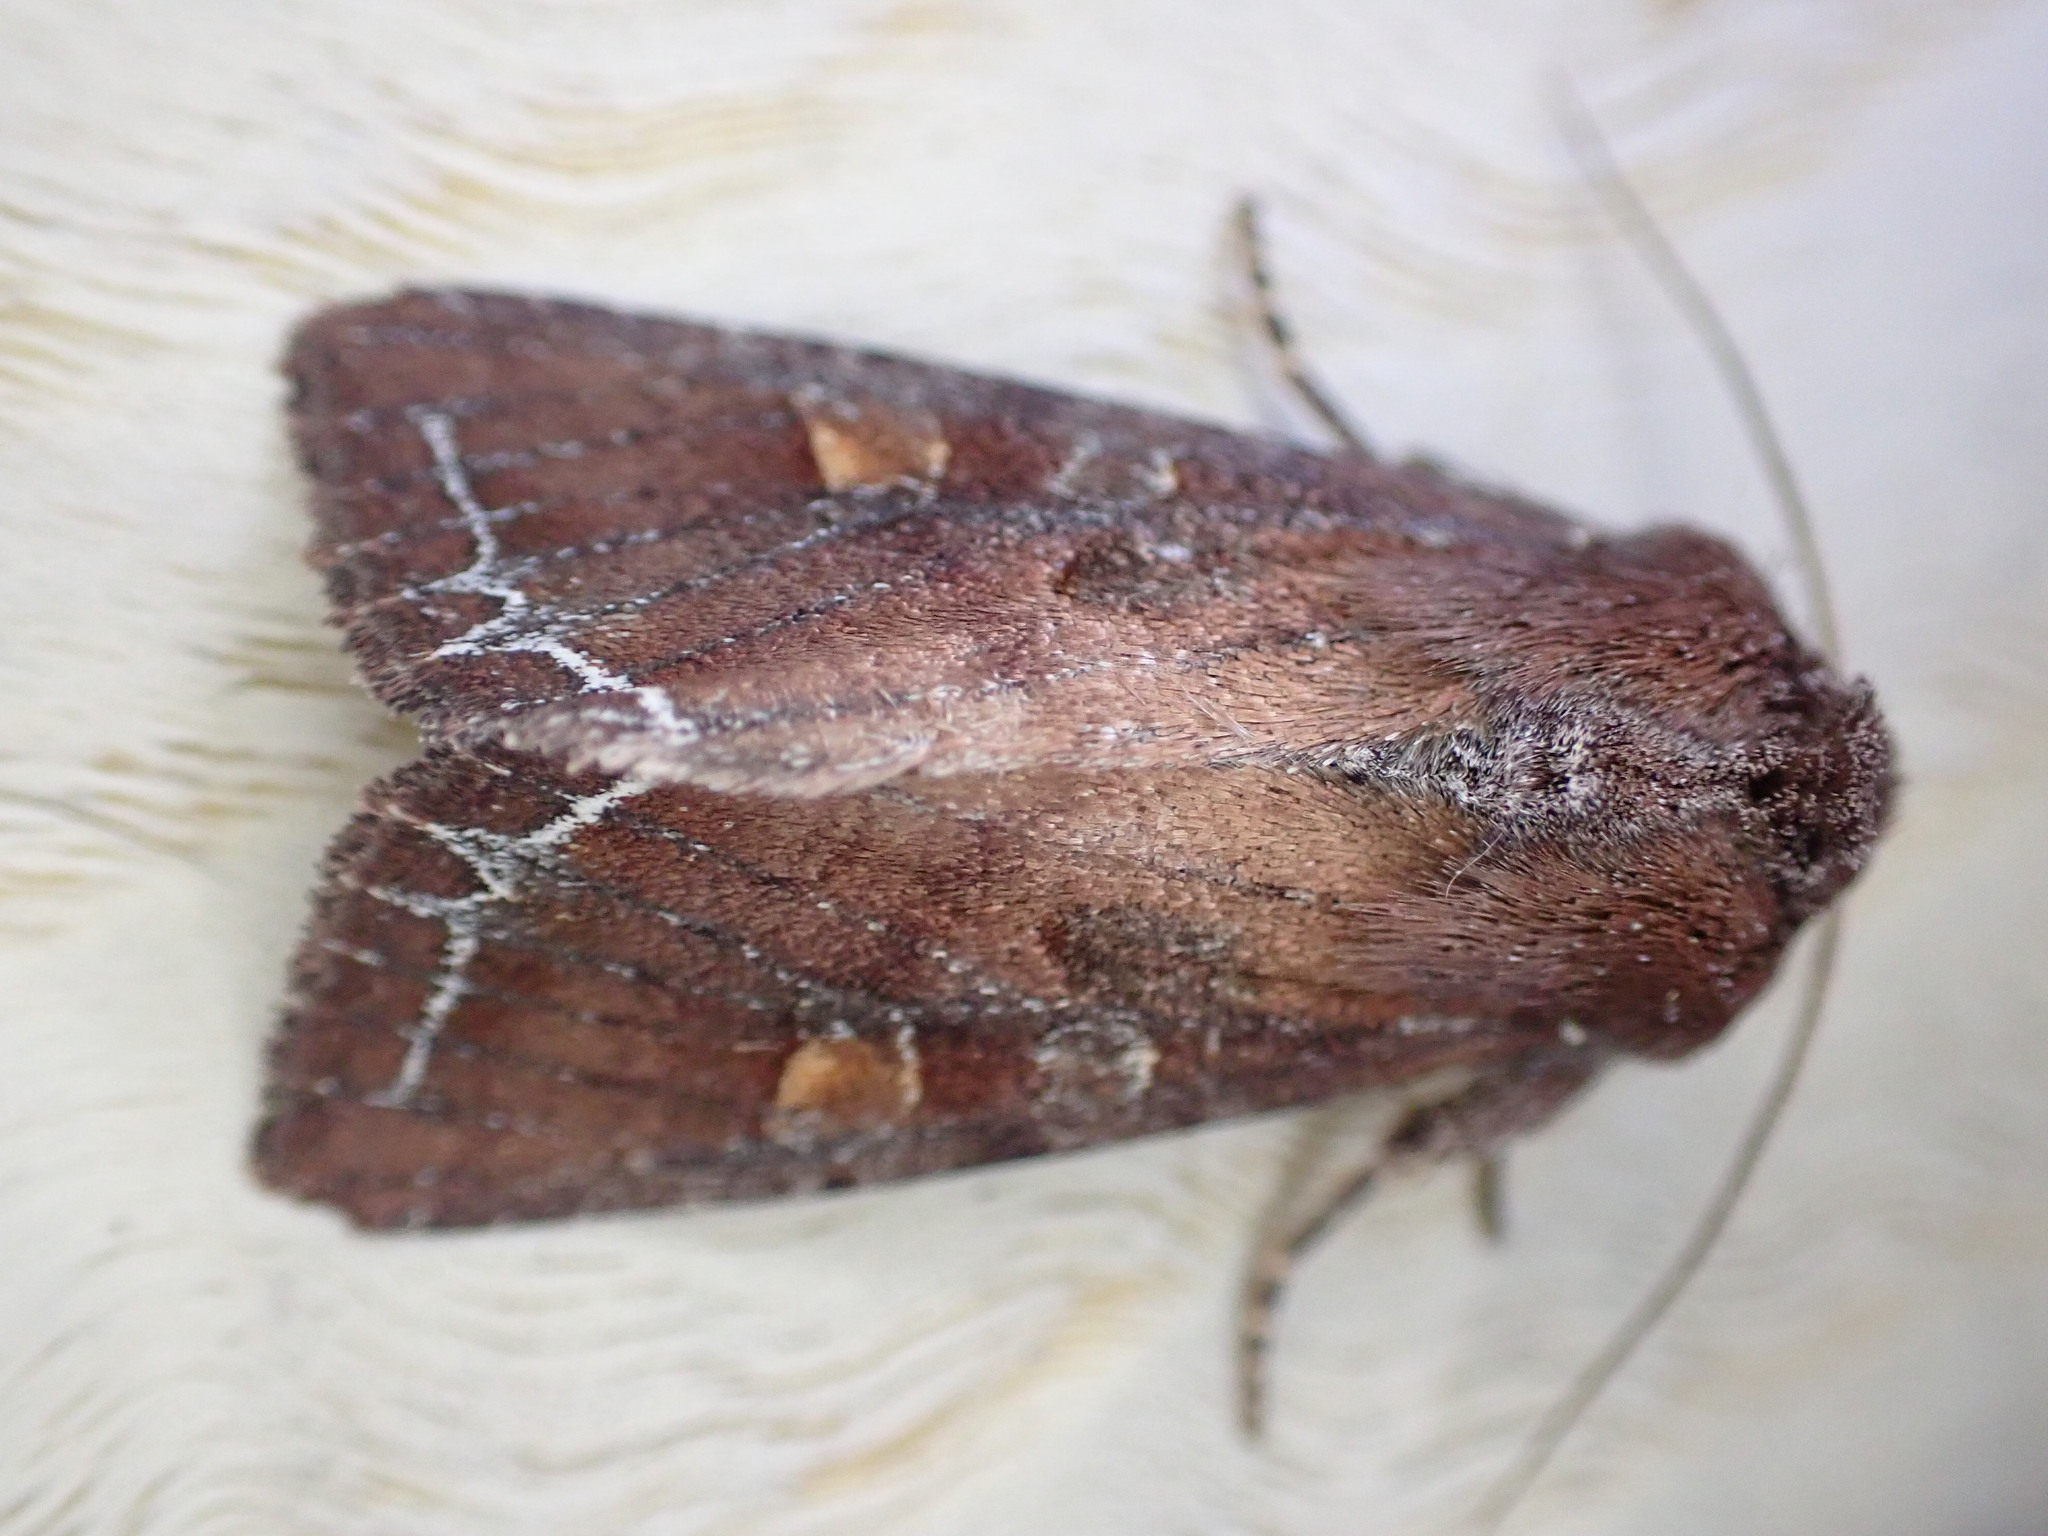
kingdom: Animalia
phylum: Arthropoda
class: Insecta
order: Lepidoptera
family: Noctuidae
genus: Lacanobia
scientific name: Lacanobia oleracea
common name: Bright-line brown-eye
